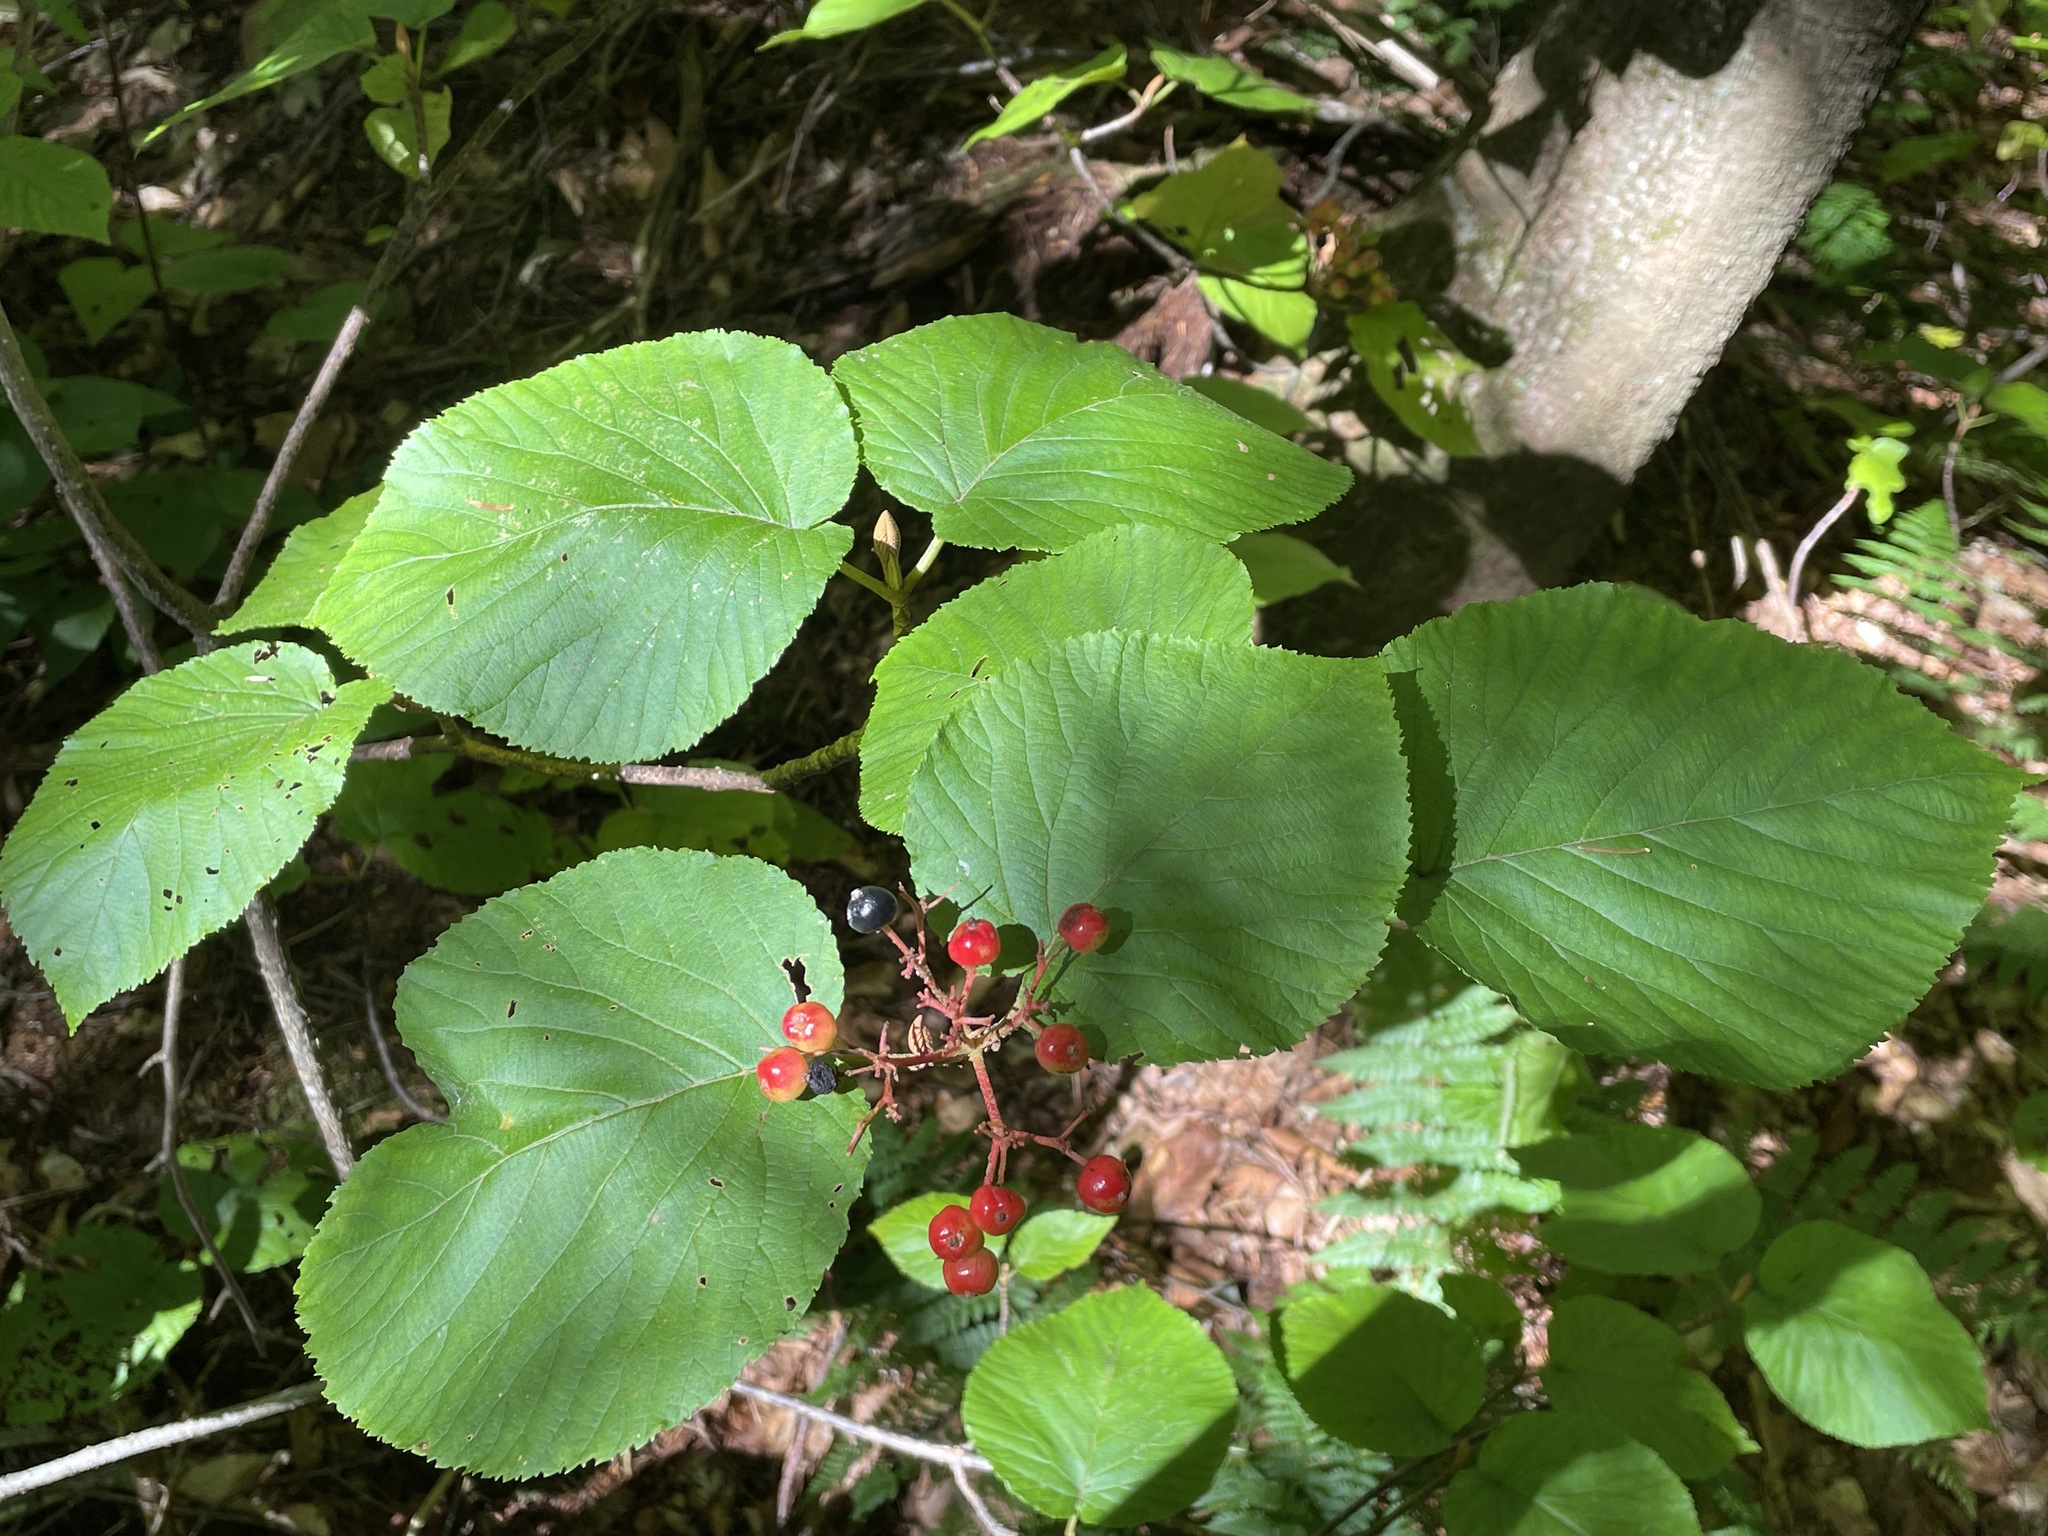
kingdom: Plantae
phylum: Tracheophyta
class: Magnoliopsida
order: Dipsacales
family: Viburnaceae
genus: Viburnum
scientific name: Viburnum lantanoides
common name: Hobblebush
